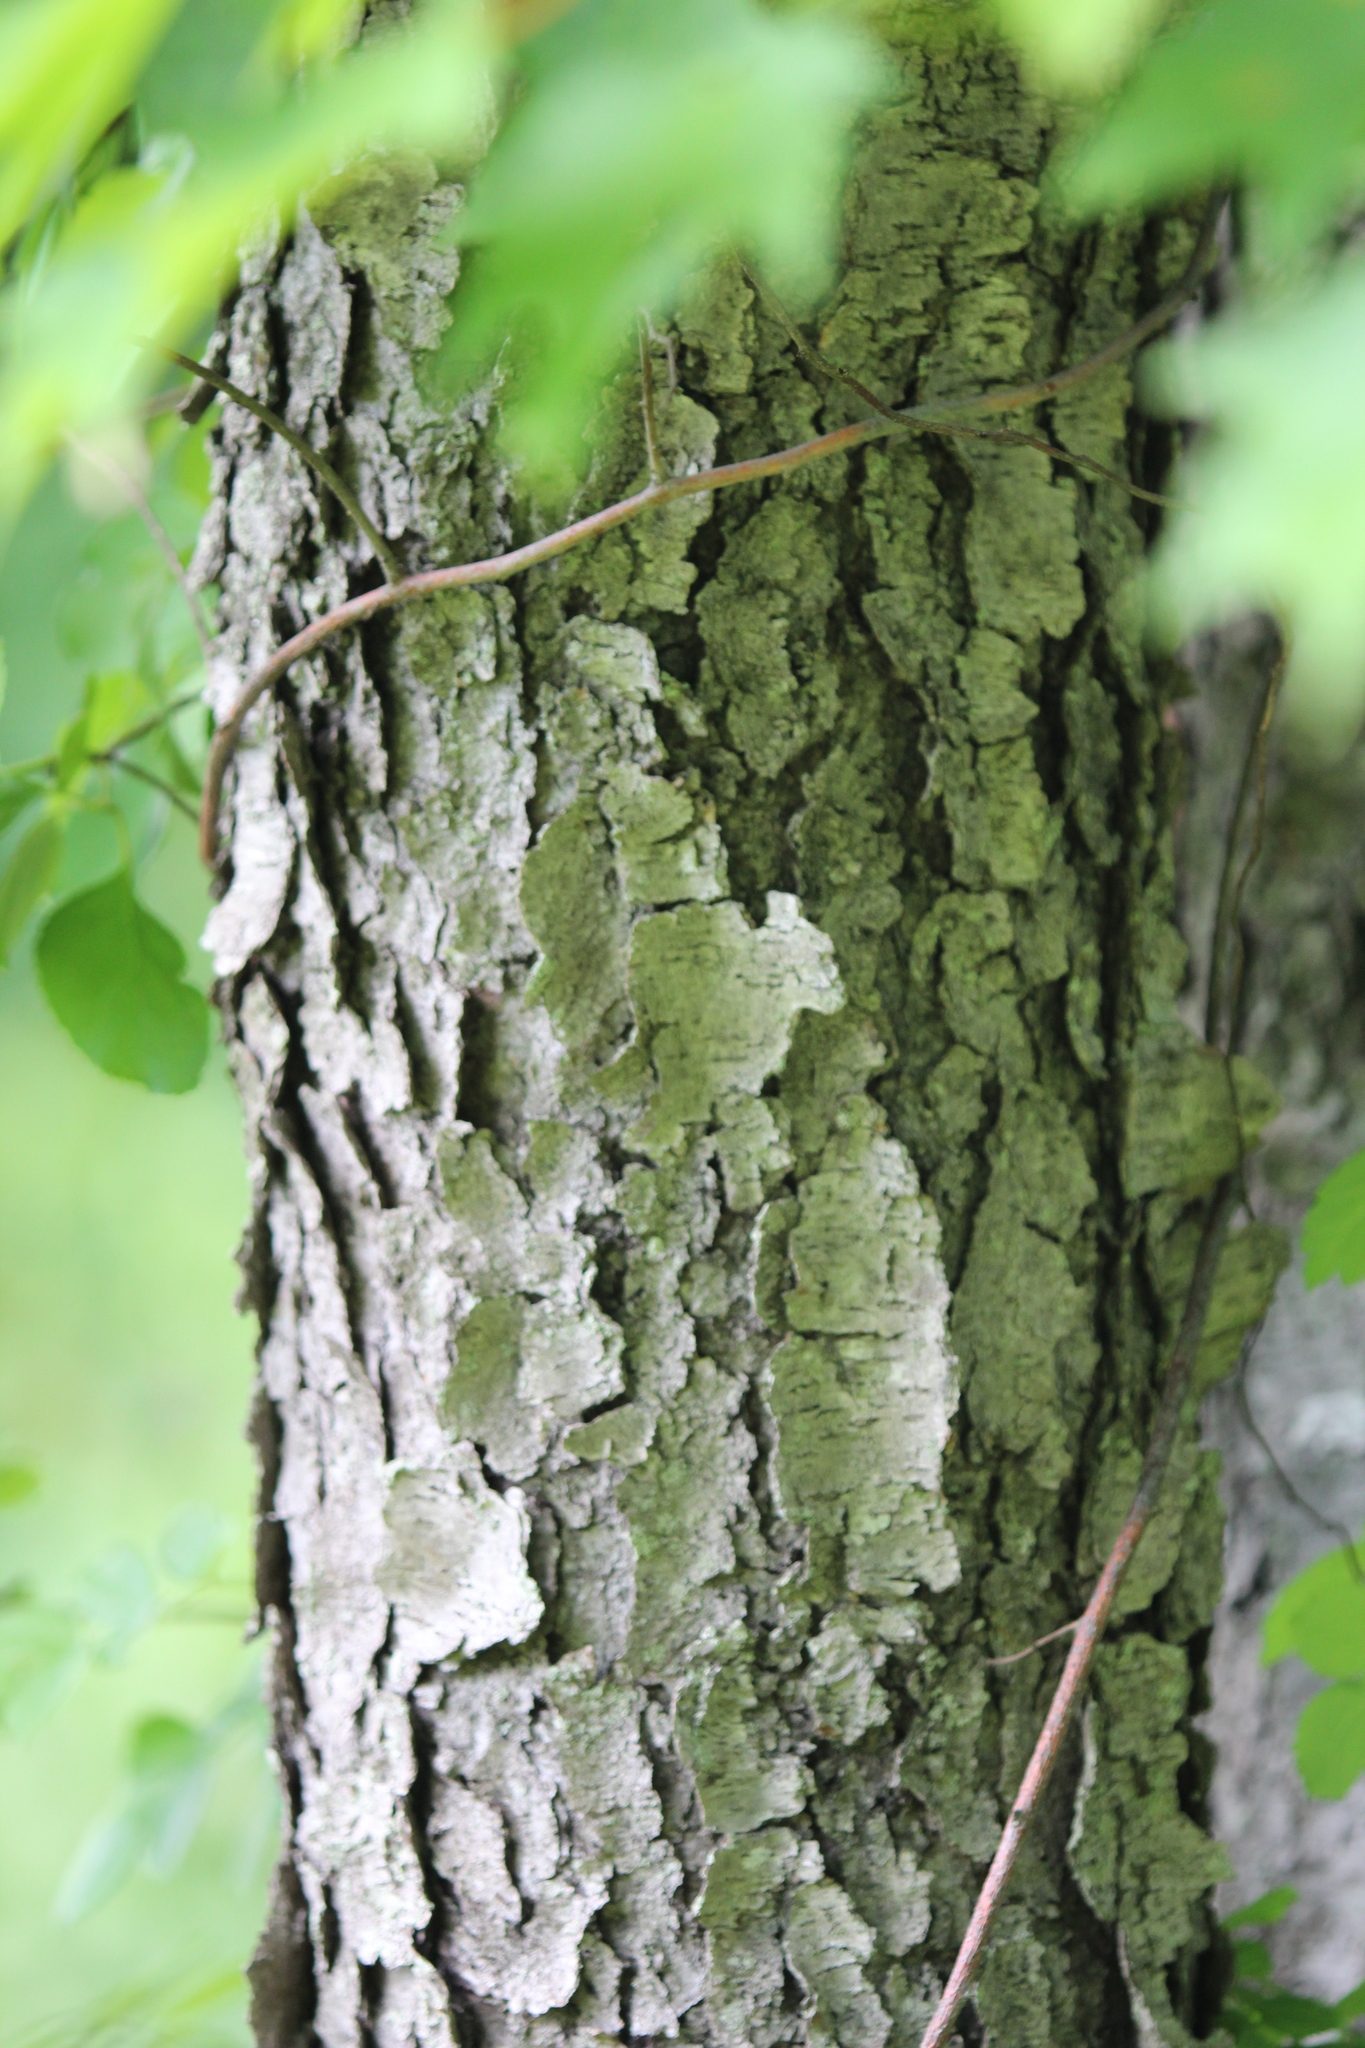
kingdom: Plantae
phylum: Tracheophyta
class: Magnoliopsida
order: Rosales
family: Rosaceae
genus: Prunus
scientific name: Prunus serotina
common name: Black cherry
